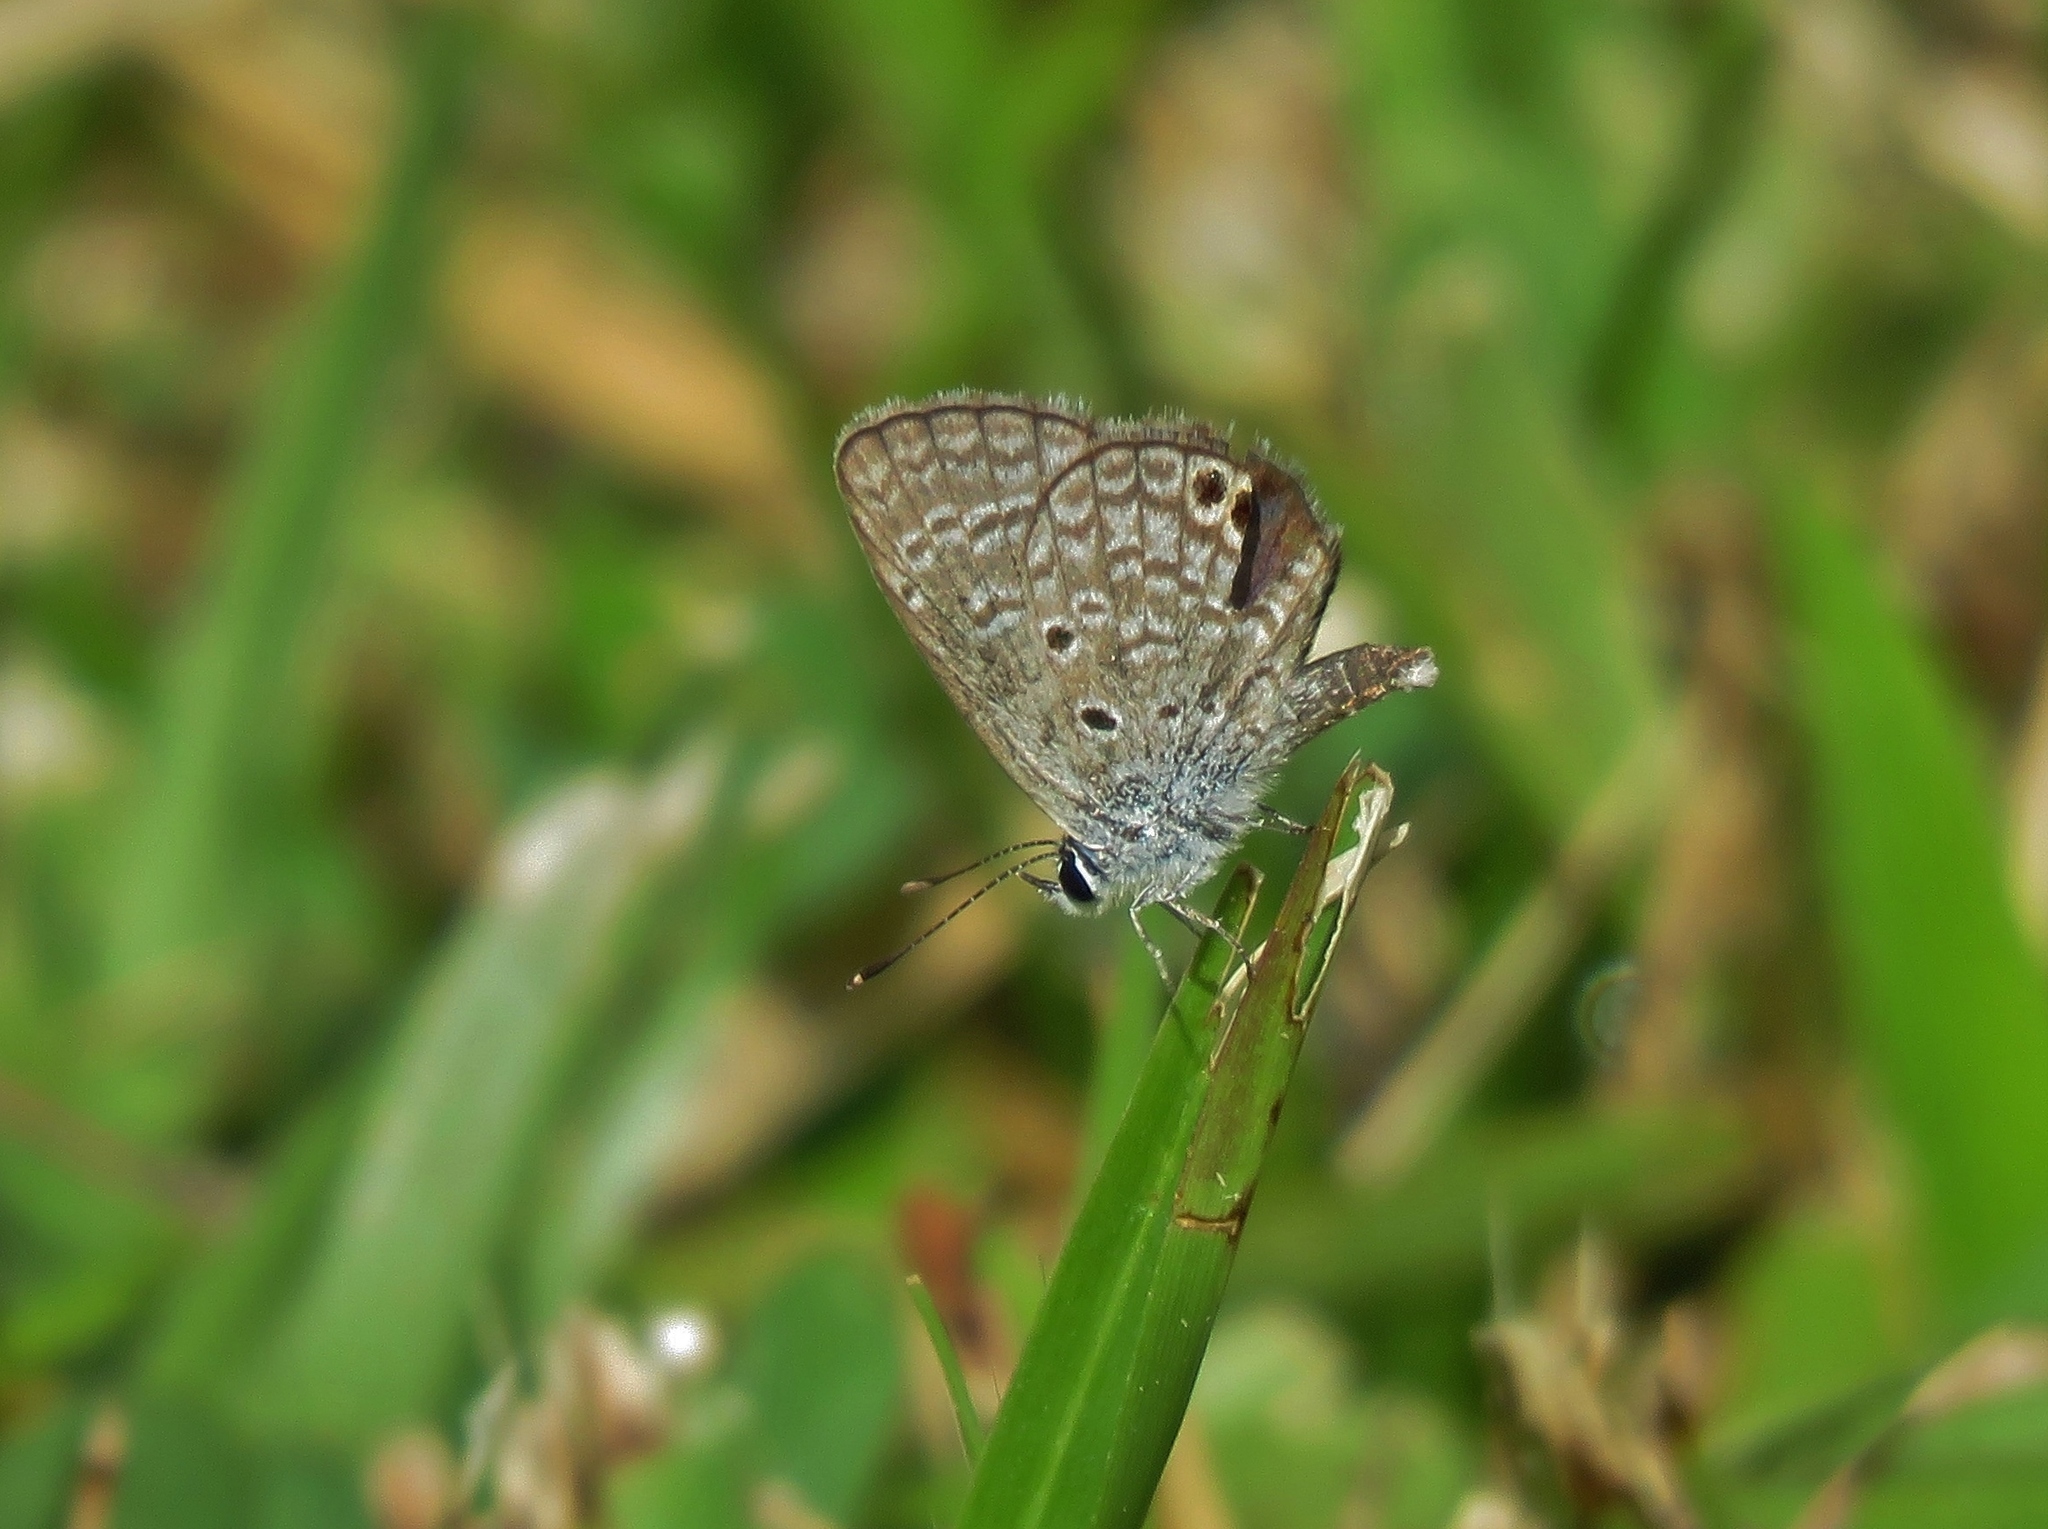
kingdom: Animalia
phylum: Arthropoda
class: Insecta
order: Lepidoptera
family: Lycaenidae
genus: Hemiargus
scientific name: Hemiargus ceraunus
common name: Ceraunus blue
